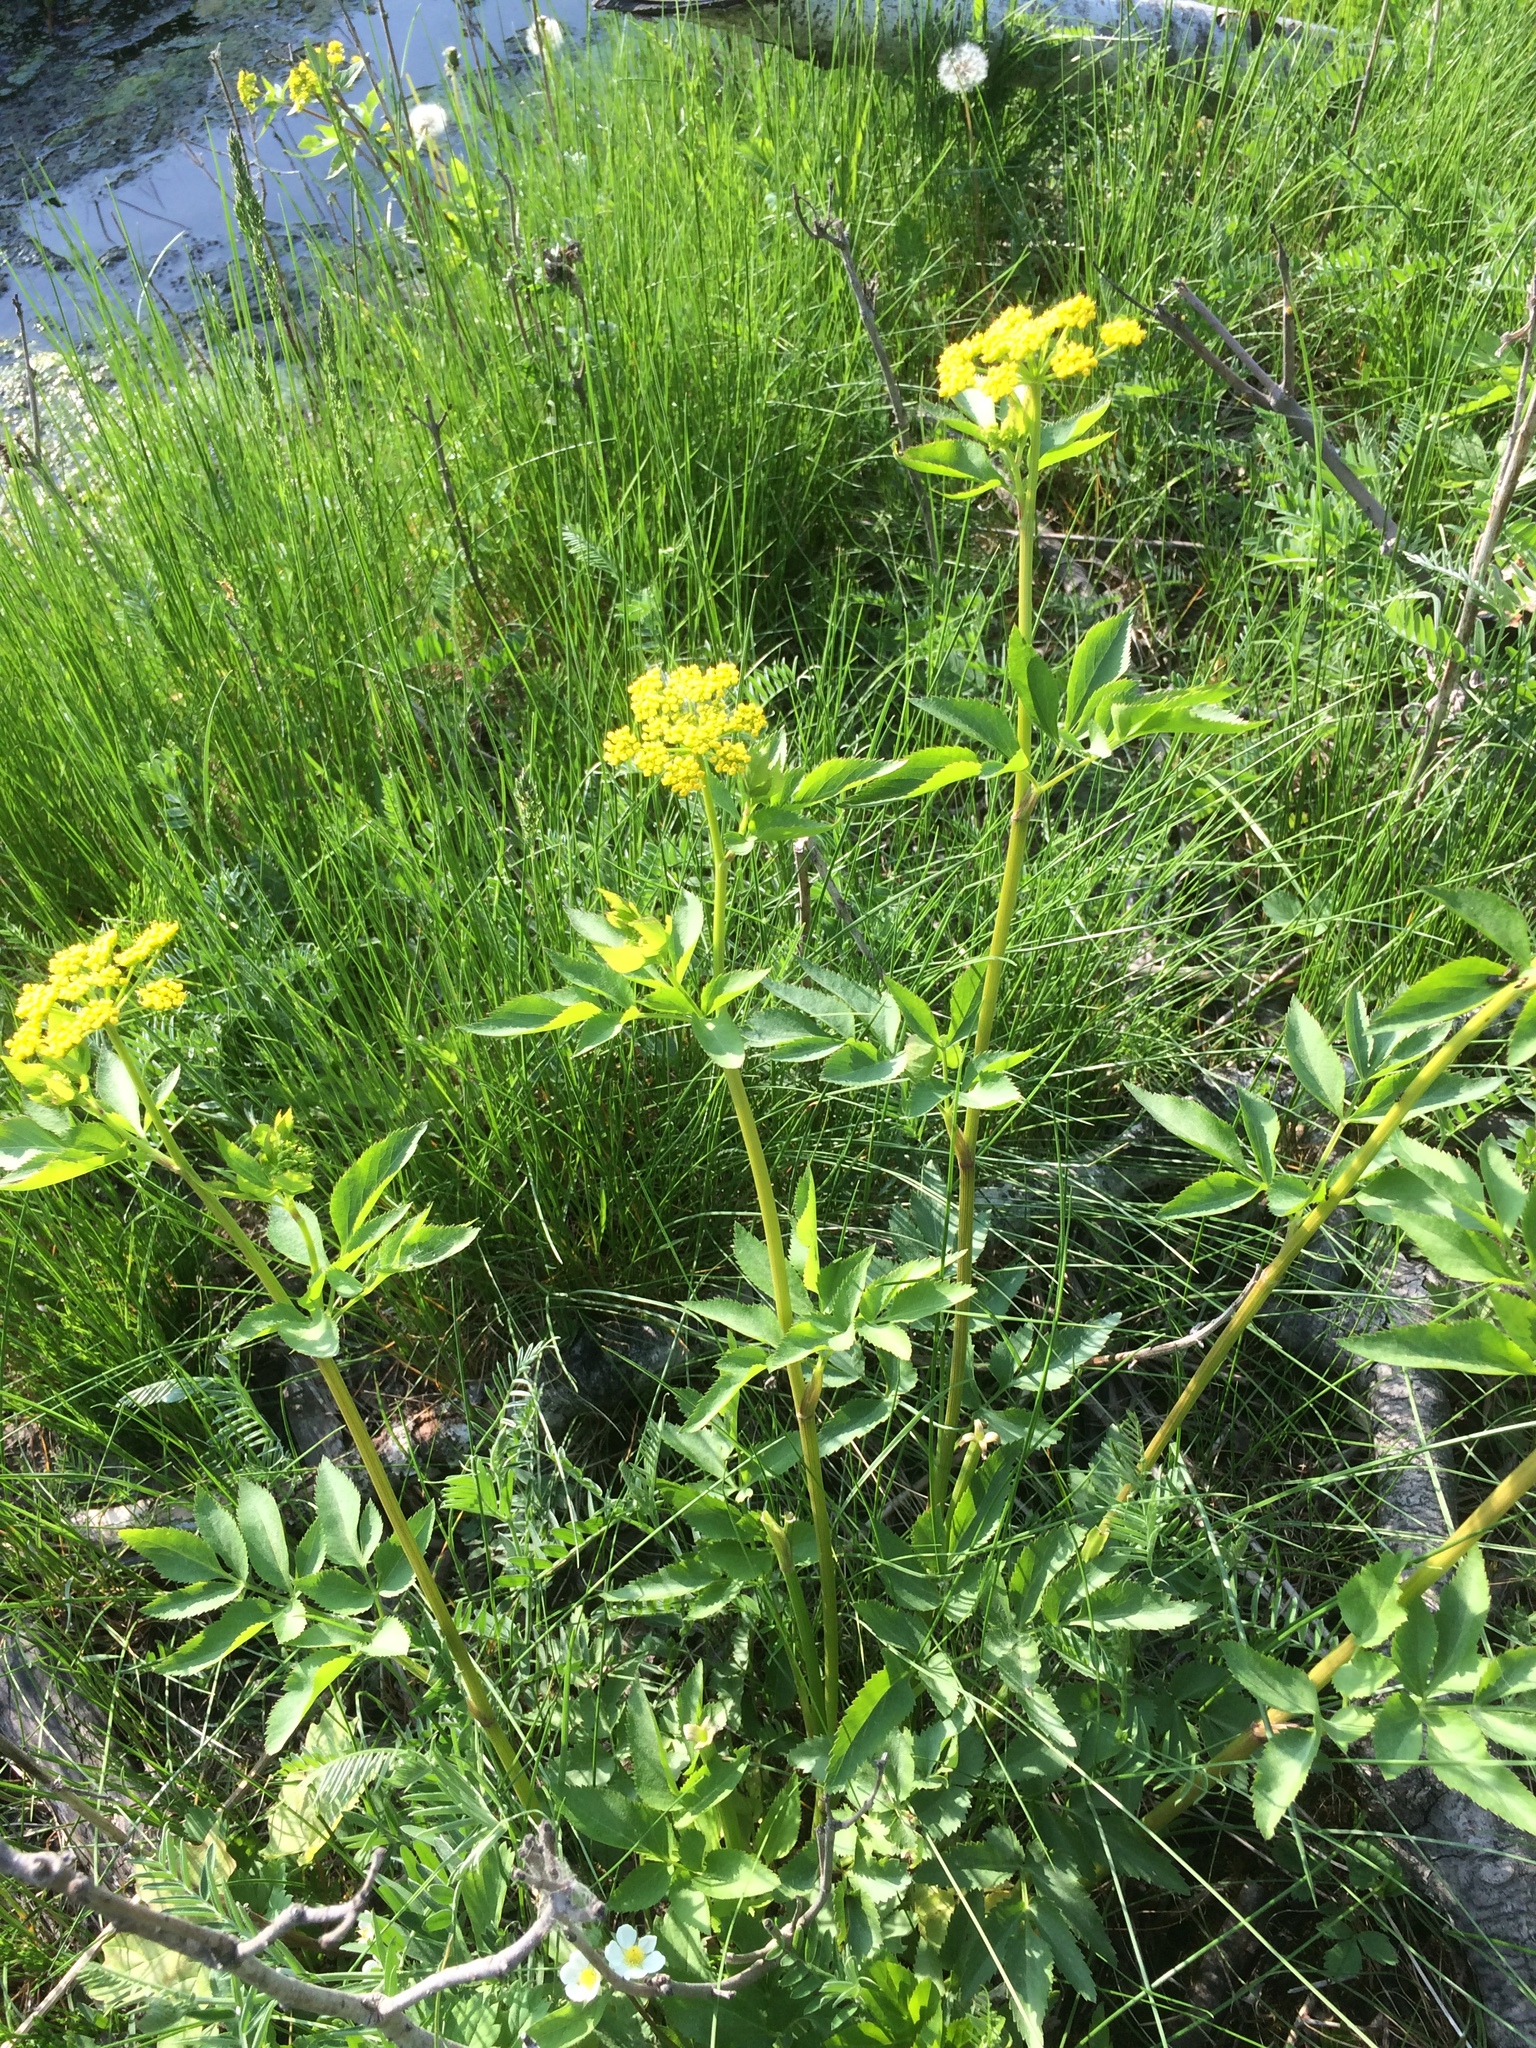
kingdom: Plantae
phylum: Tracheophyta
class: Magnoliopsida
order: Apiales
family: Apiaceae
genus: Zizia
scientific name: Zizia aurea
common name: Golden alexanders
